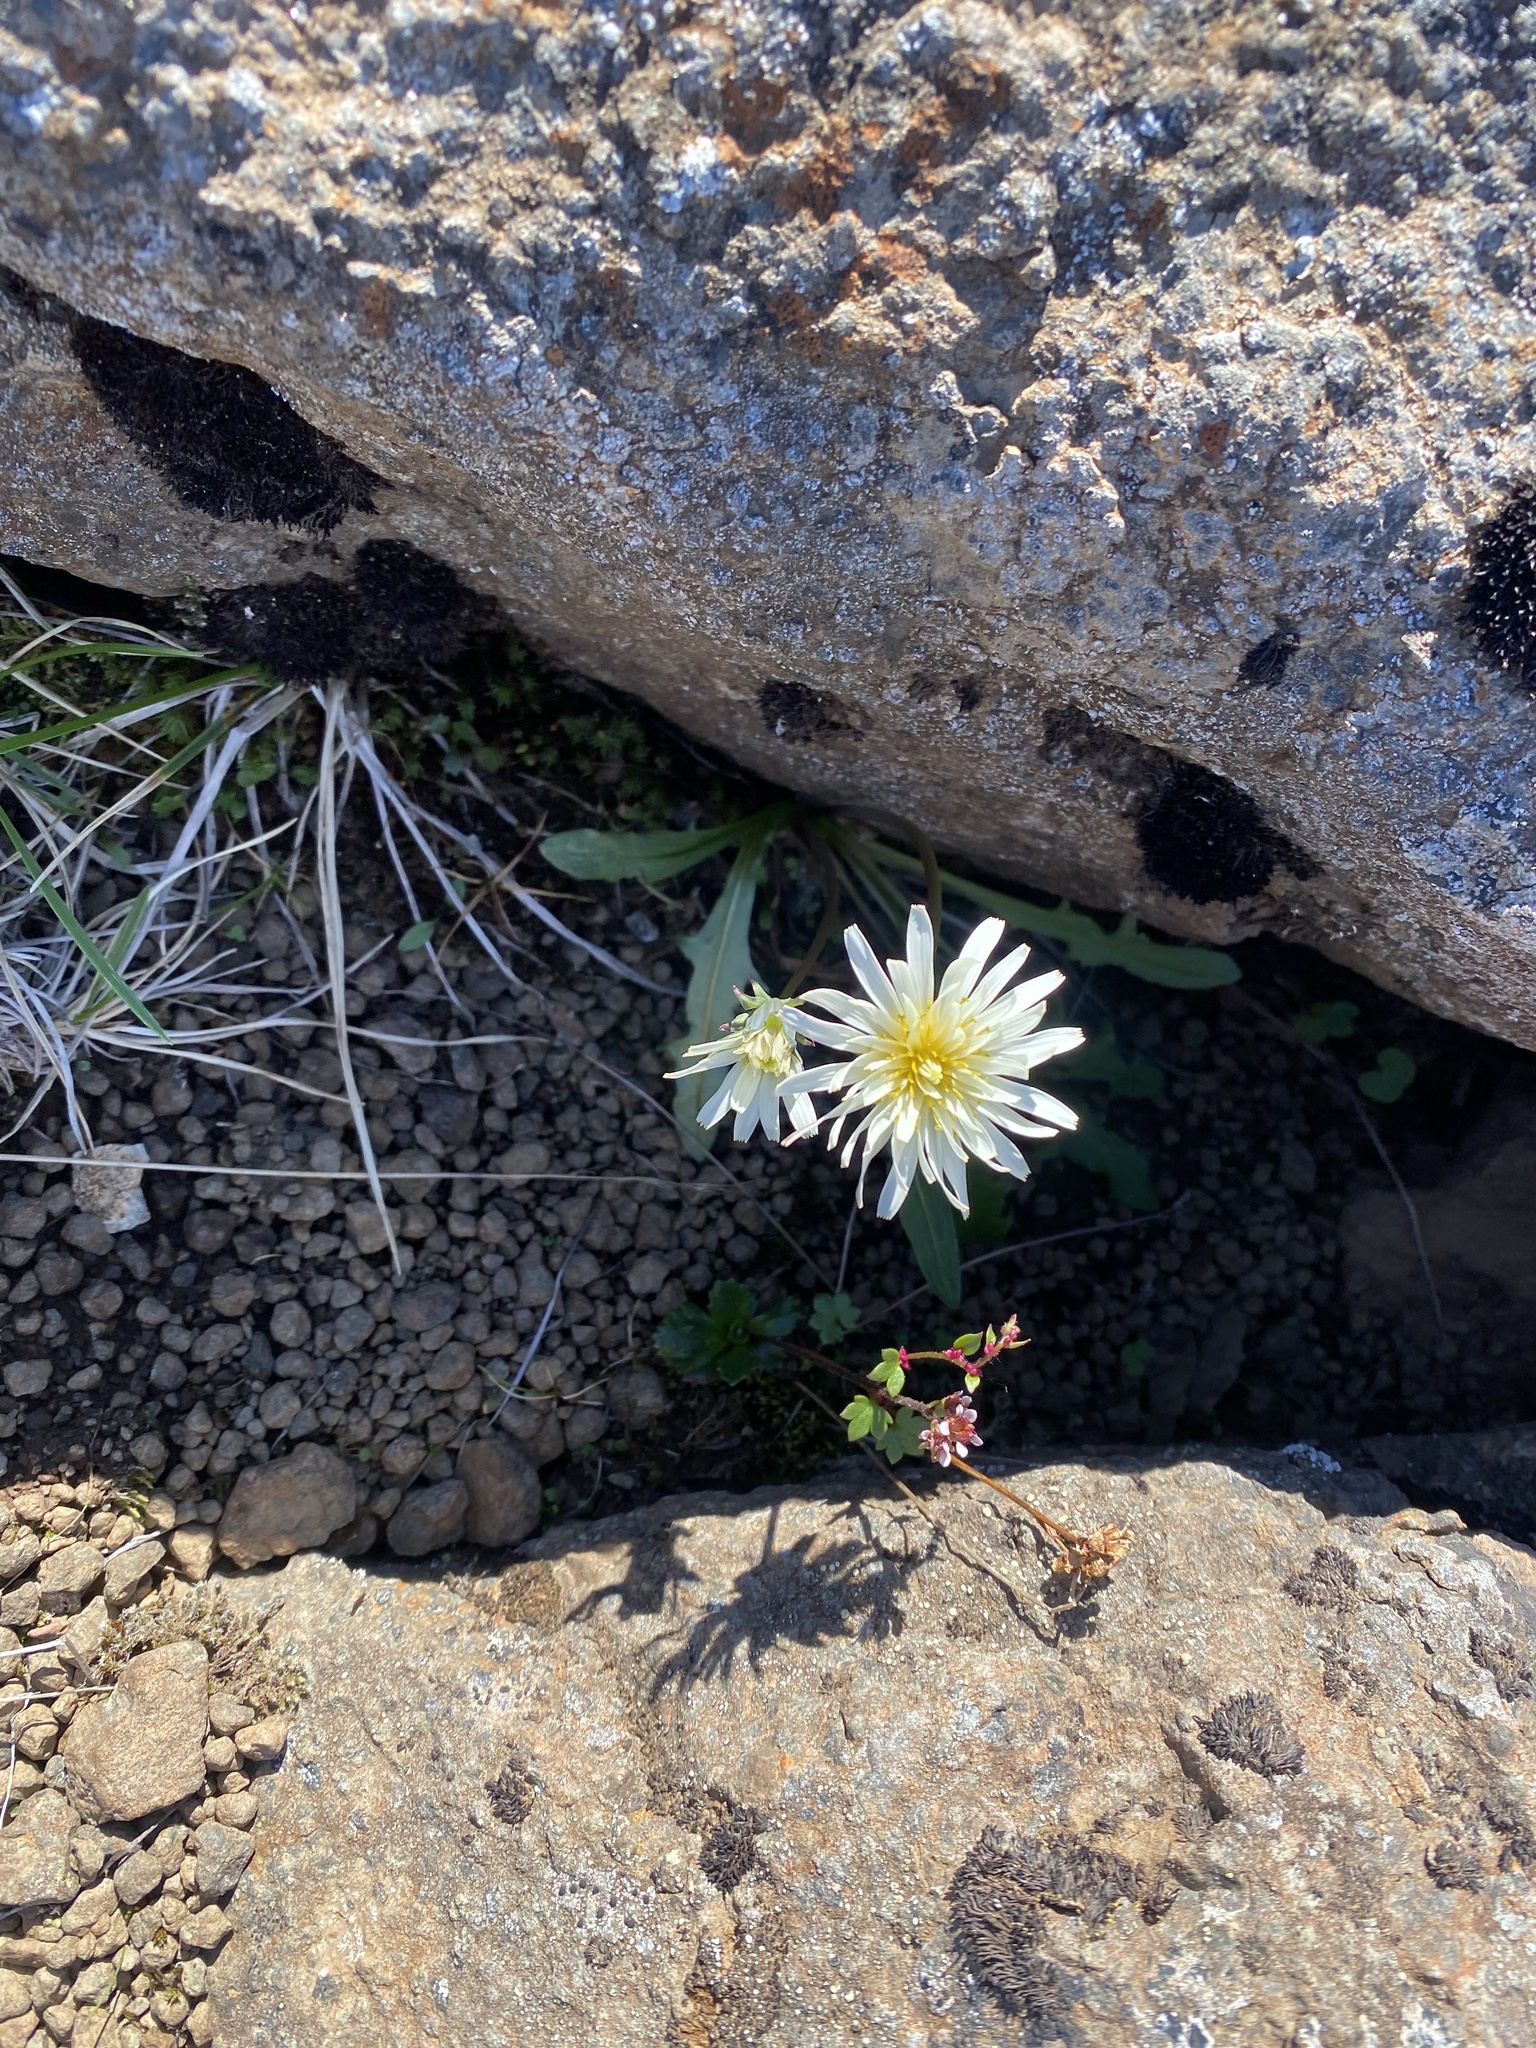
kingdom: Plantae
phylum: Tracheophyta
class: Magnoliopsida
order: Asterales
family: Asteraceae
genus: Taraxacum
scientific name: Taraxacum arcticum
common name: Arctic dandelion
